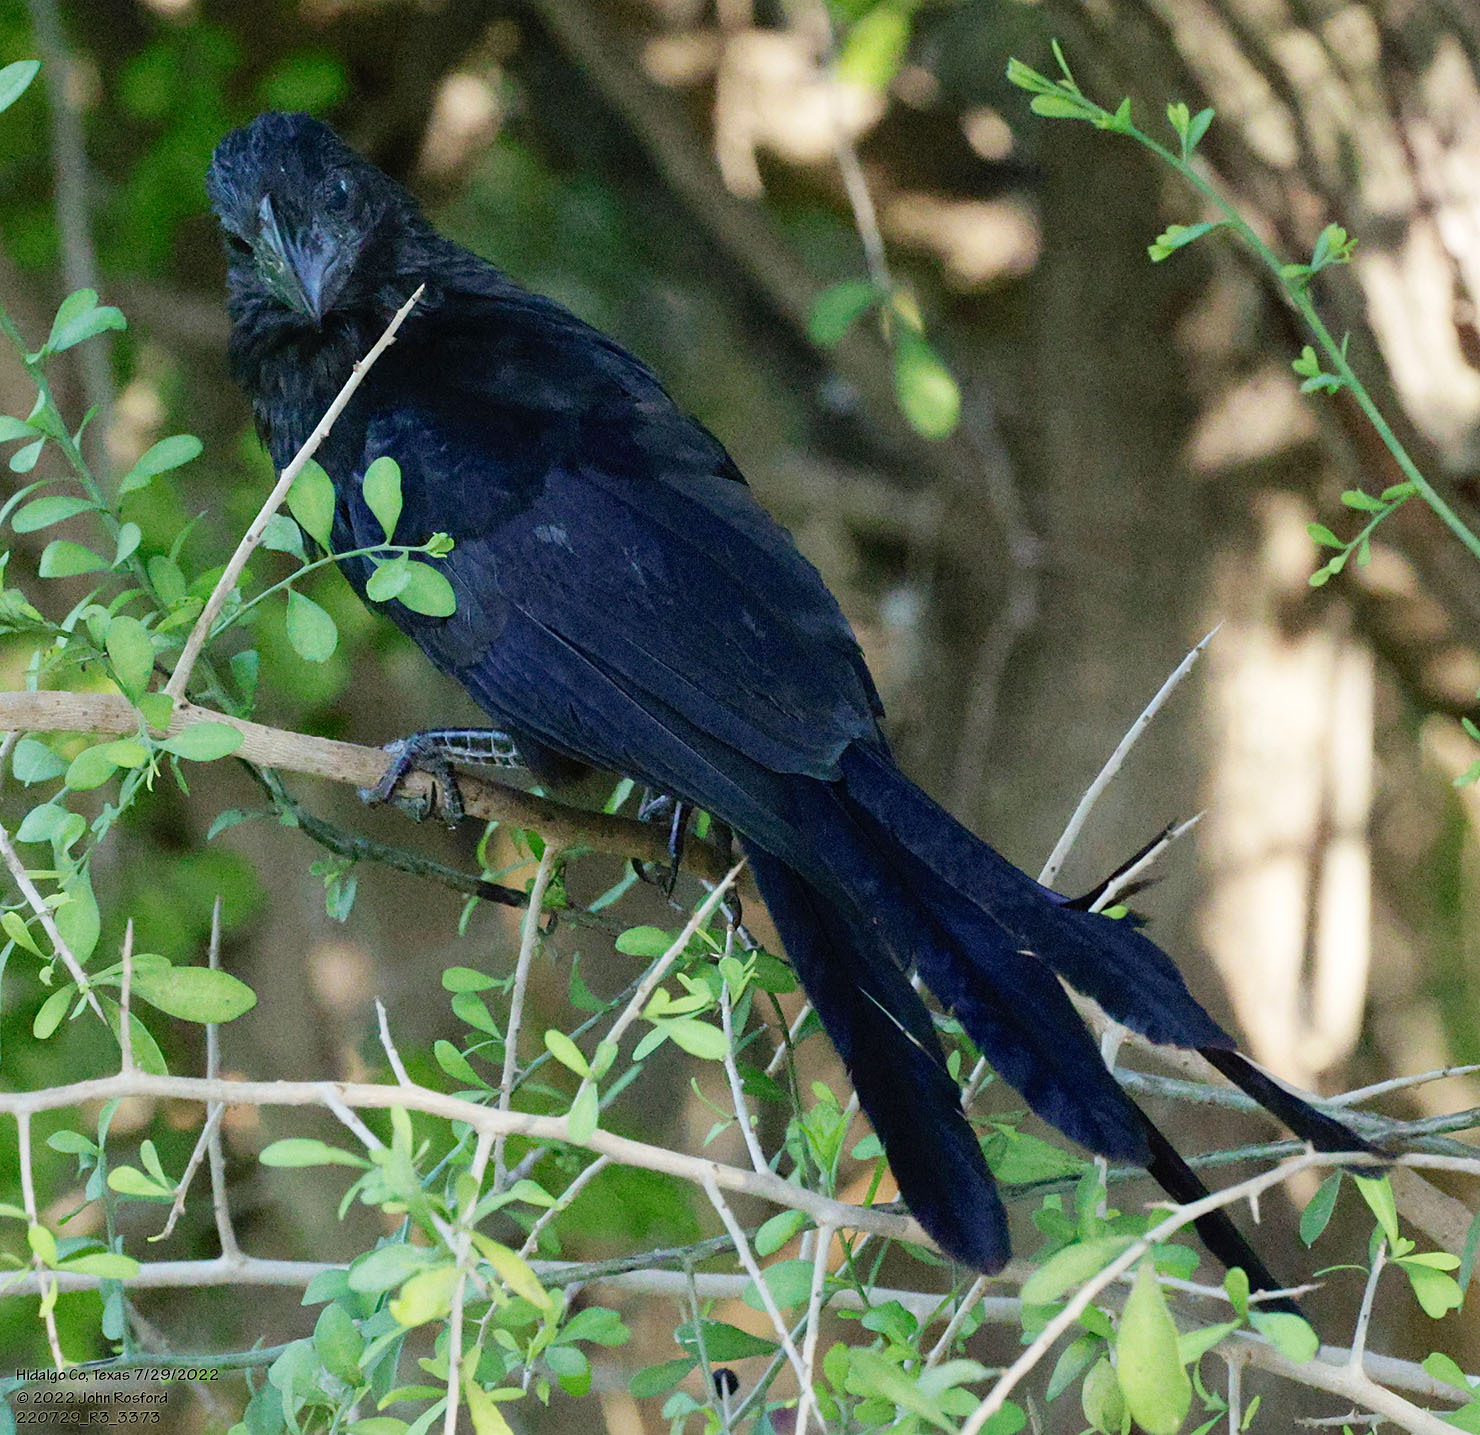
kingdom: Animalia
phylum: Chordata
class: Aves
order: Cuculiformes
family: Cuculidae
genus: Crotophaga
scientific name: Crotophaga sulcirostris
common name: Groove-billed ani
